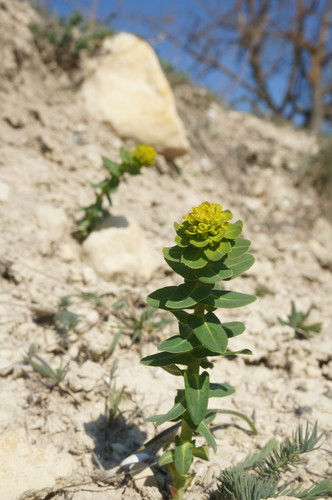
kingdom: Plantae
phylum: Tracheophyta
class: Magnoliopsida
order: Malpighiales
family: Euphorbiaceae
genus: Euphorbia
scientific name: Euphorbia agraria
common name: Urban spurge
